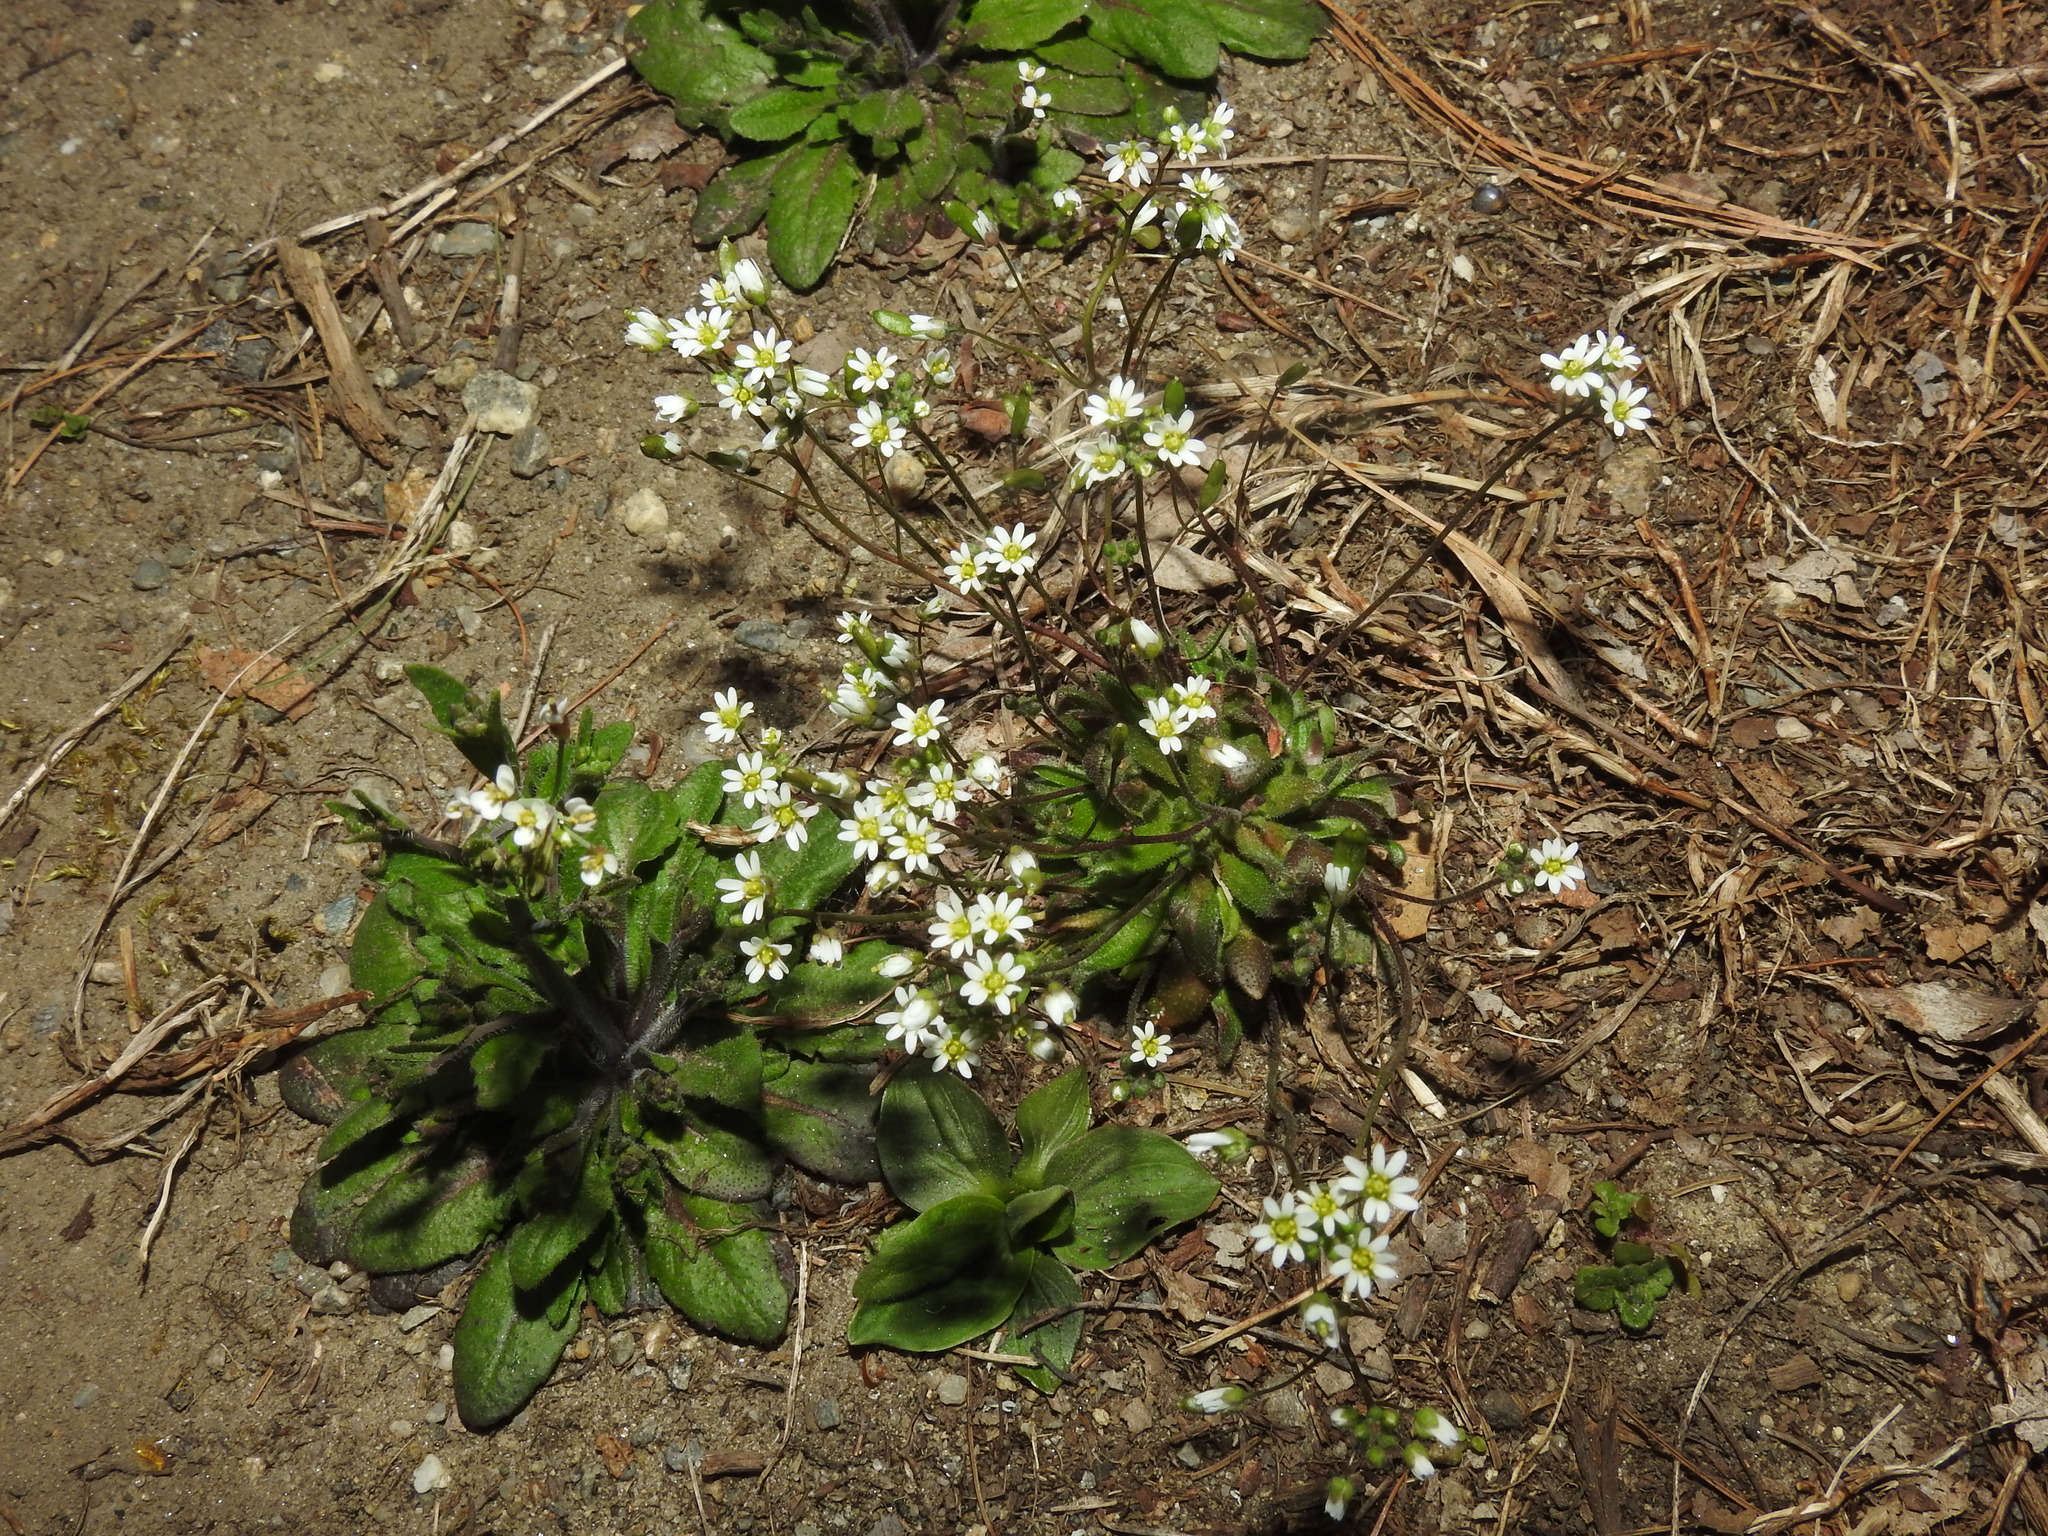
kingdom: Plantae
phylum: Tracheophyta
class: Magnoliopsida
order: Brassicales
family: Brassicaceae
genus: Draba
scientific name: Draba verna
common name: Spring draba
